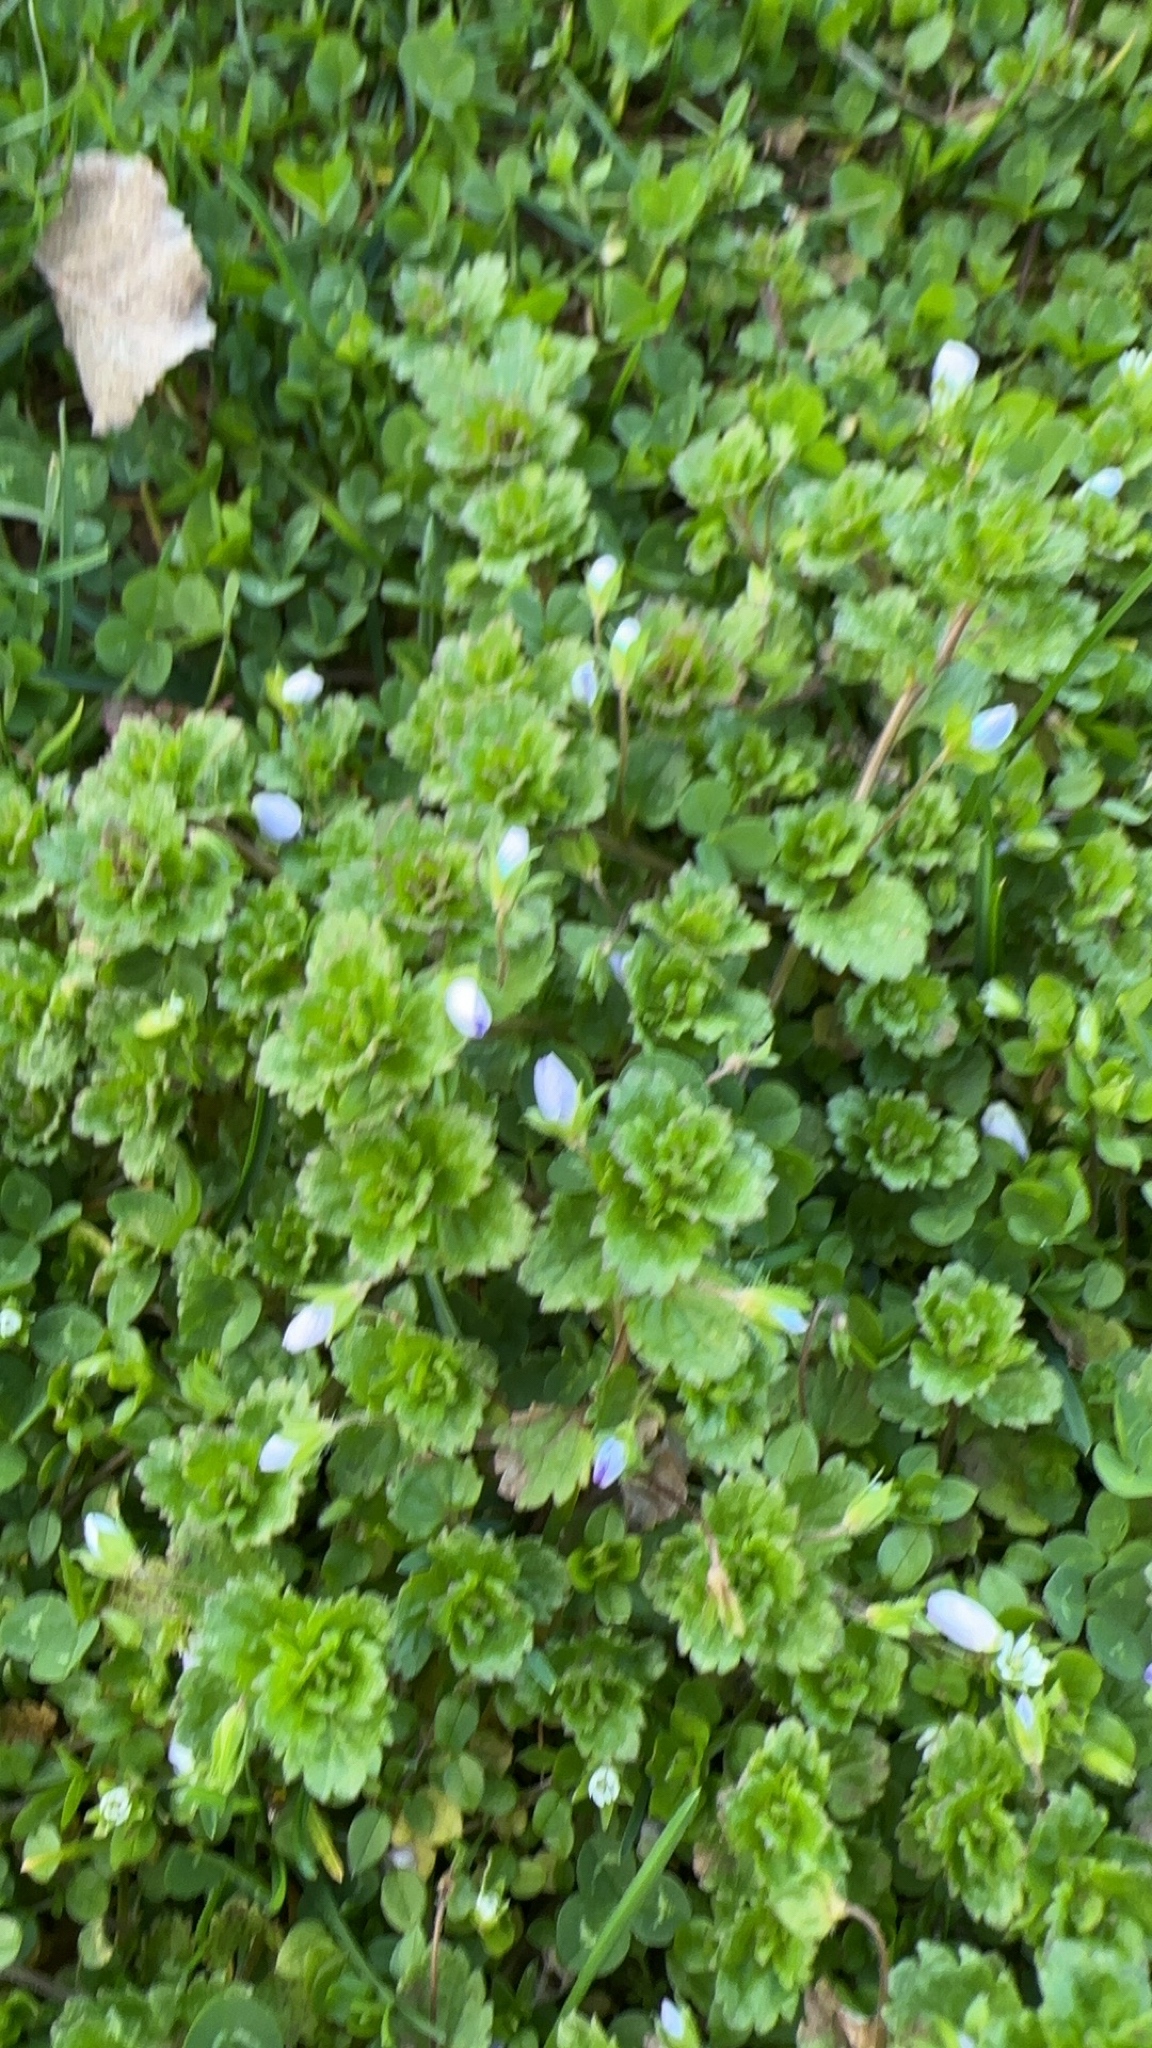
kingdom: Plantae
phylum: Tracheophyta
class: Magnoliopsida
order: Lamiales
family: Plantaginaceae
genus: Veronica
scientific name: Veronica persica
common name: Common field-speedwell
